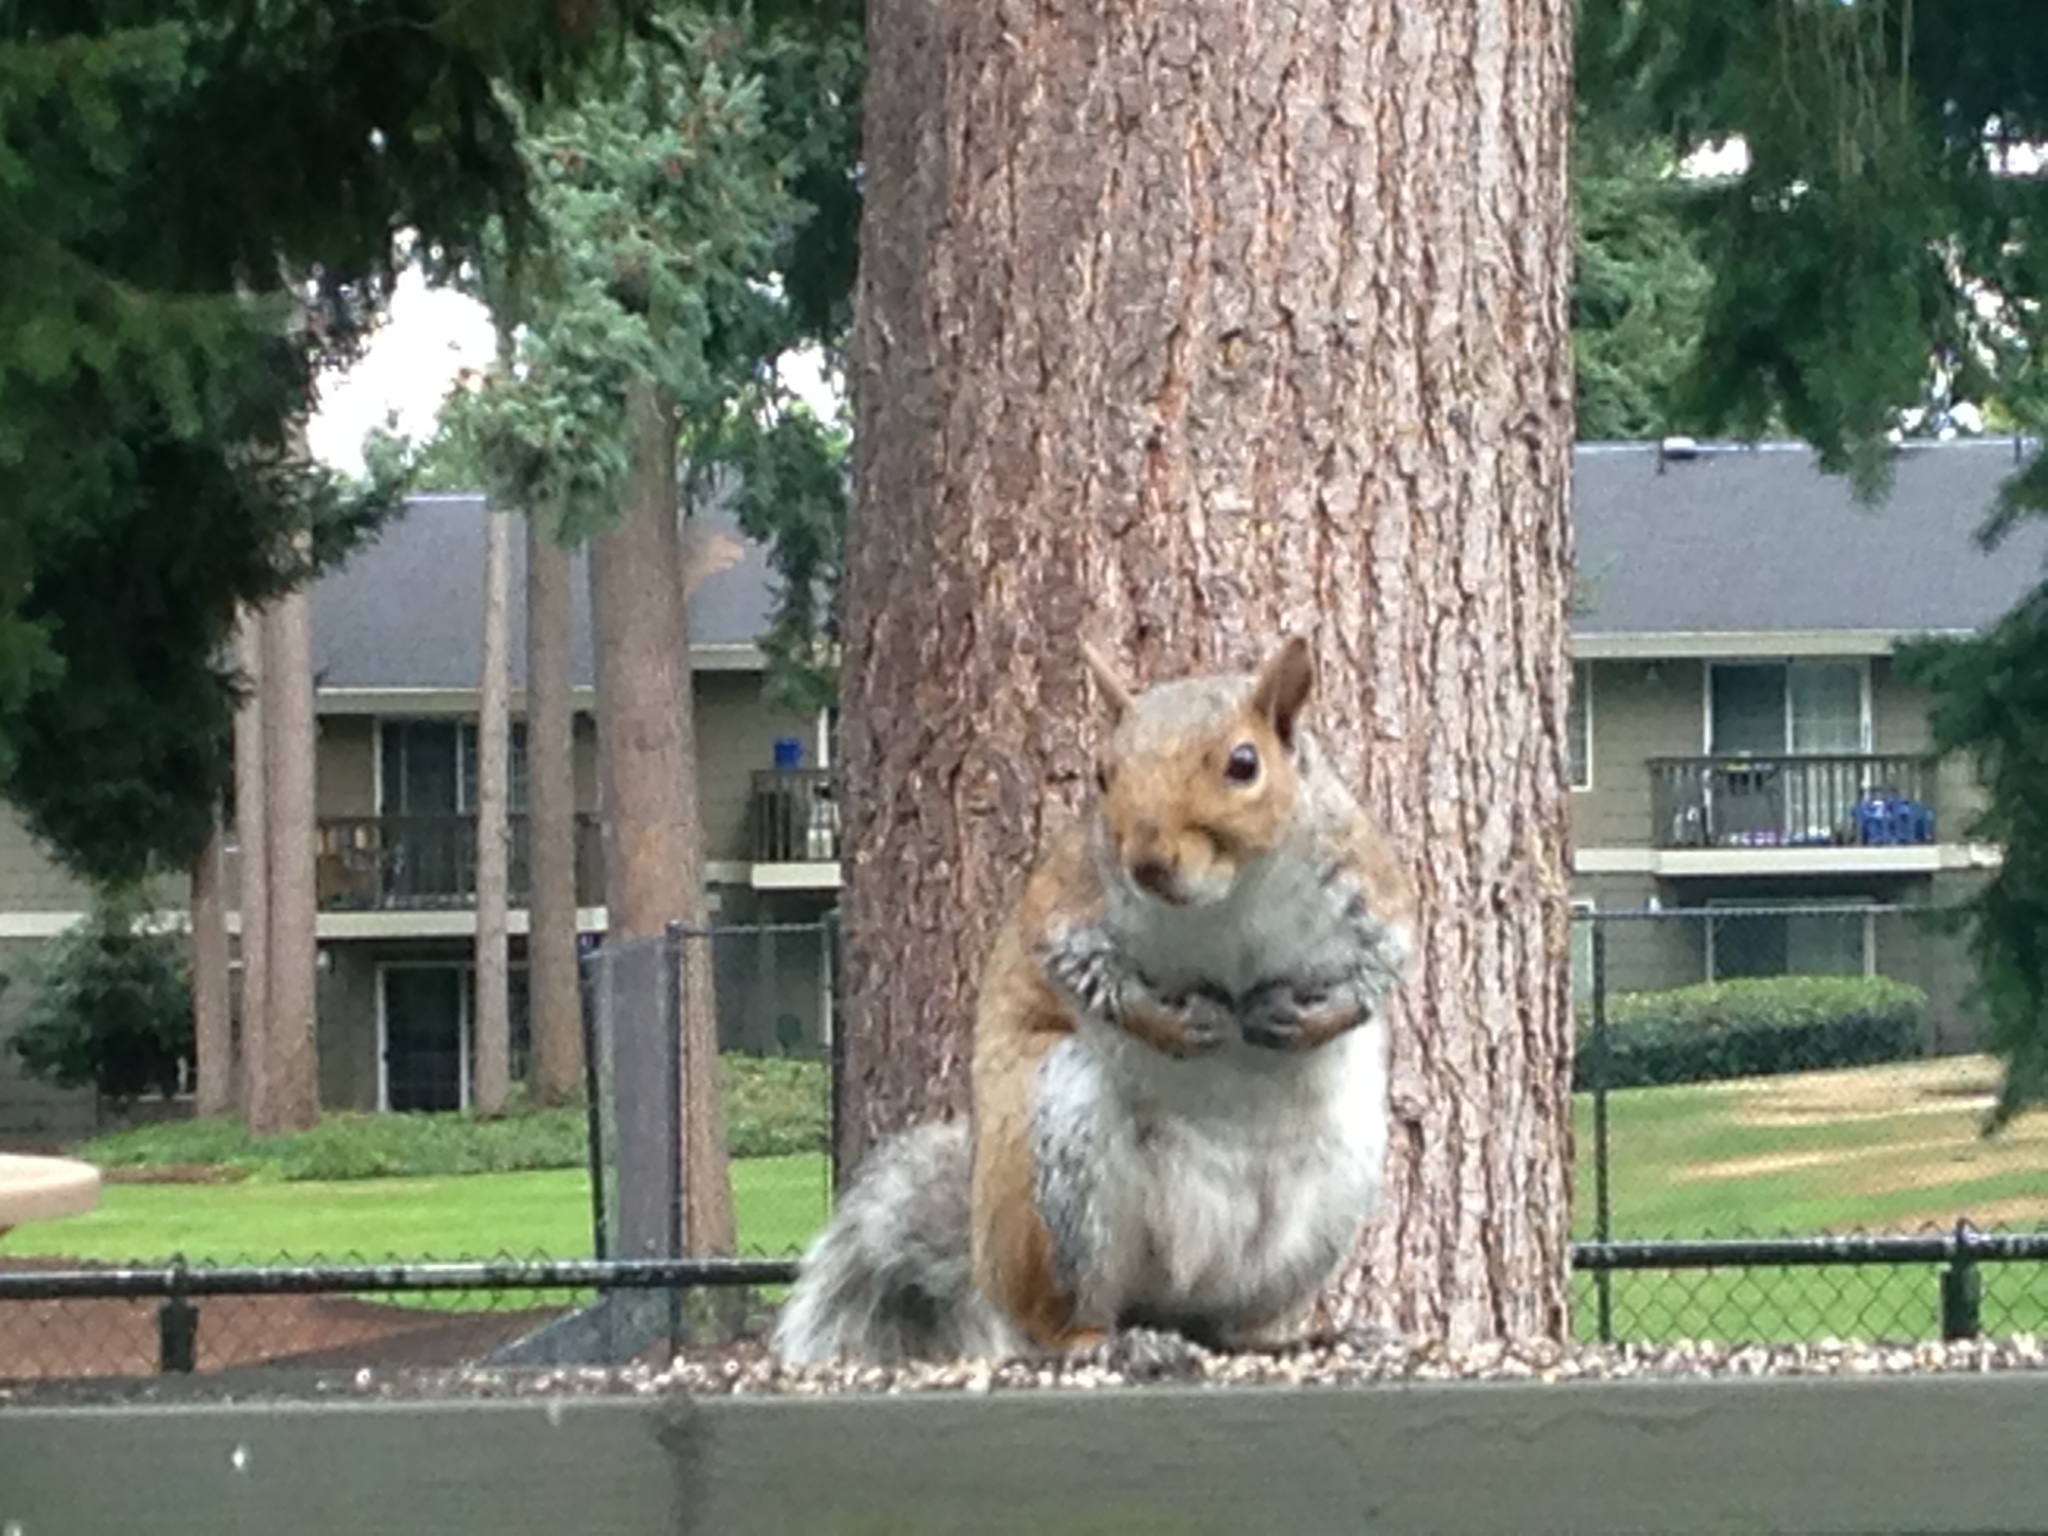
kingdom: Animalia
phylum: Chordata
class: Mammalia
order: Rodentia
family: Sciuridae
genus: Sciurus
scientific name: Sciurus carolinensis
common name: Eastern gray squirrel
